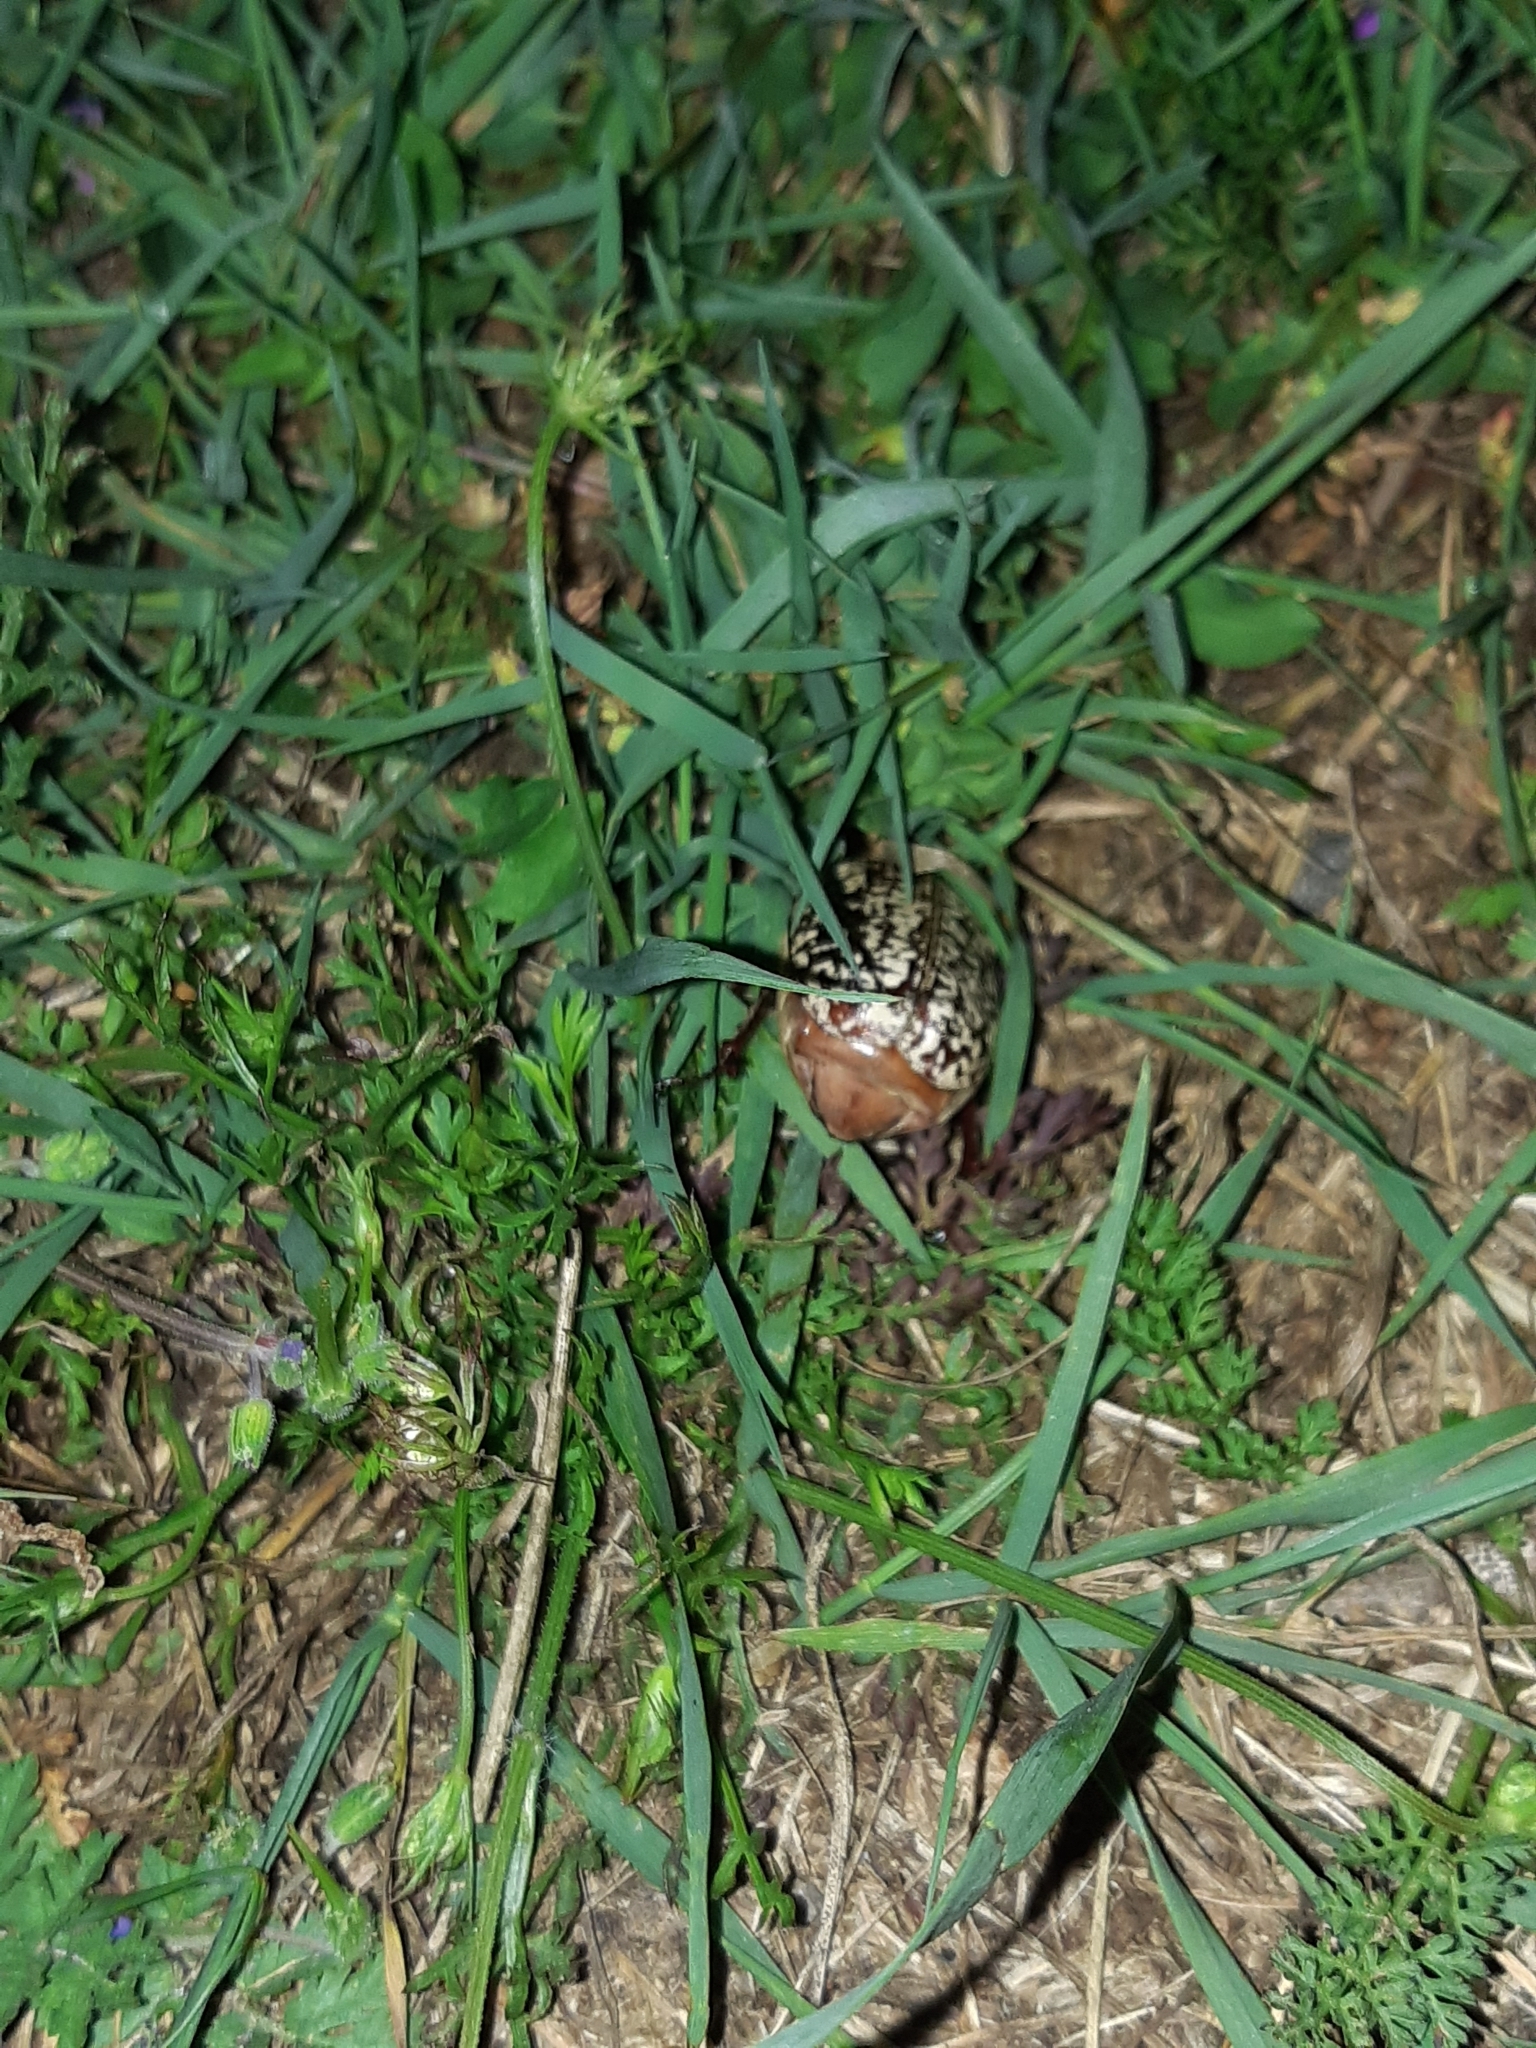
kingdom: Animalia
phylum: Arthropoda
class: Insecta
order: Coleoptera
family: Scarabaeidae
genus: Polyphylla
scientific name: Polyphylla fullo
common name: Pine chafer
